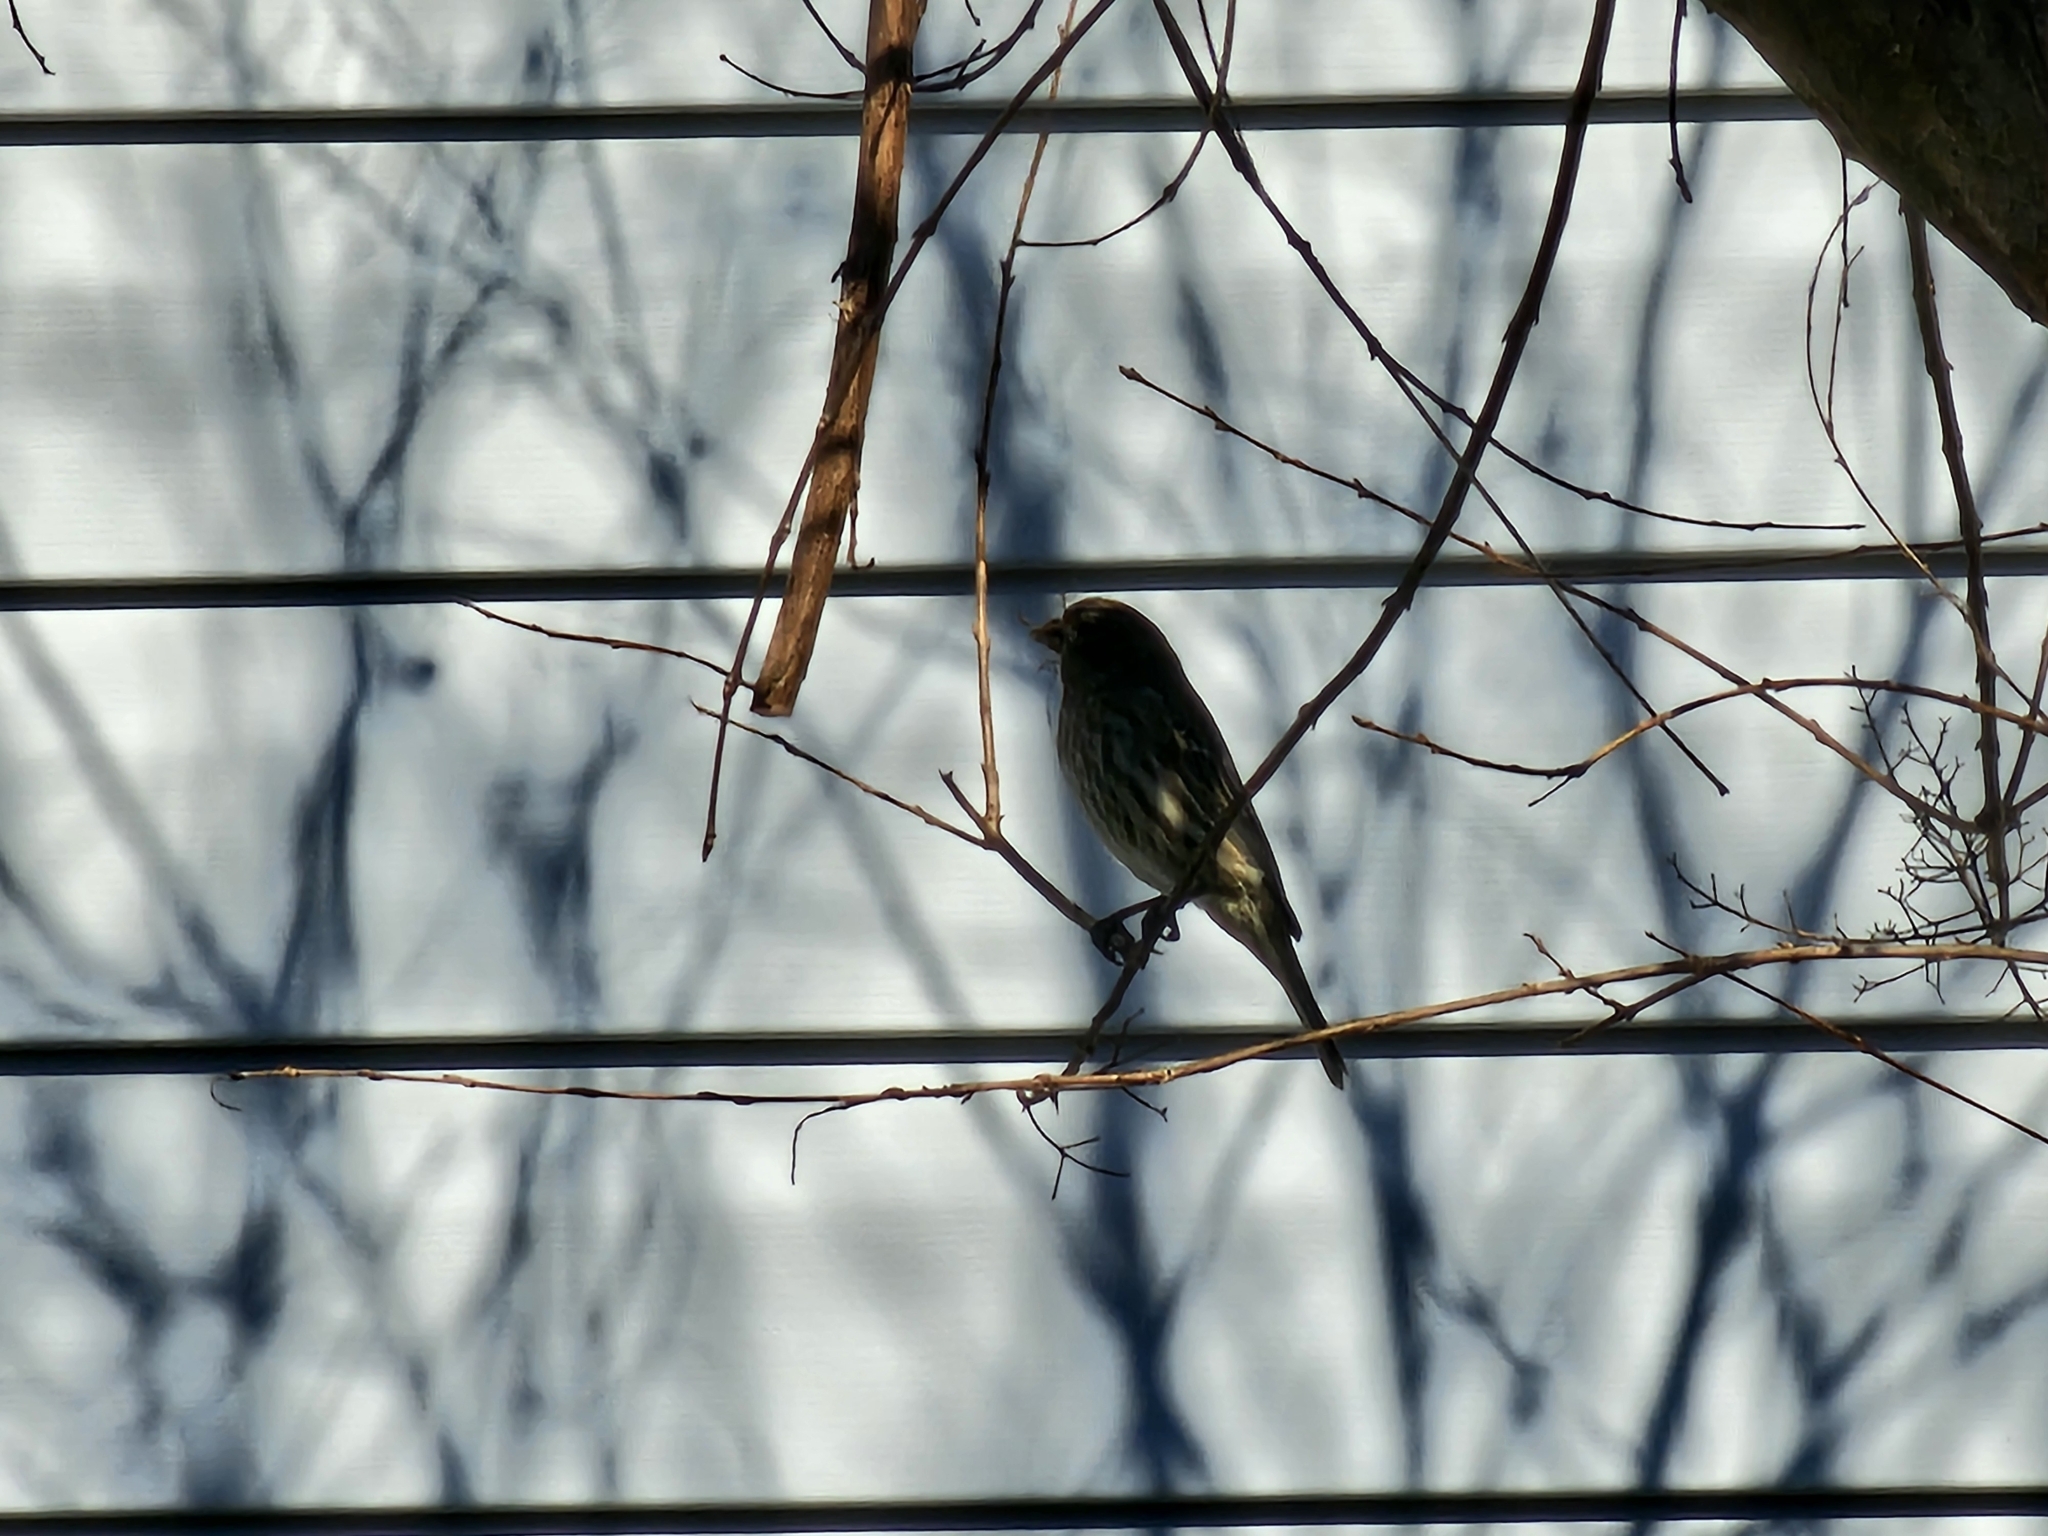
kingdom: Animalia
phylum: Chordata
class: Aves
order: Passeriformes
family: Fringillidae
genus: Haemorhous
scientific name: Haemorhous mexicanus
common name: House finch
